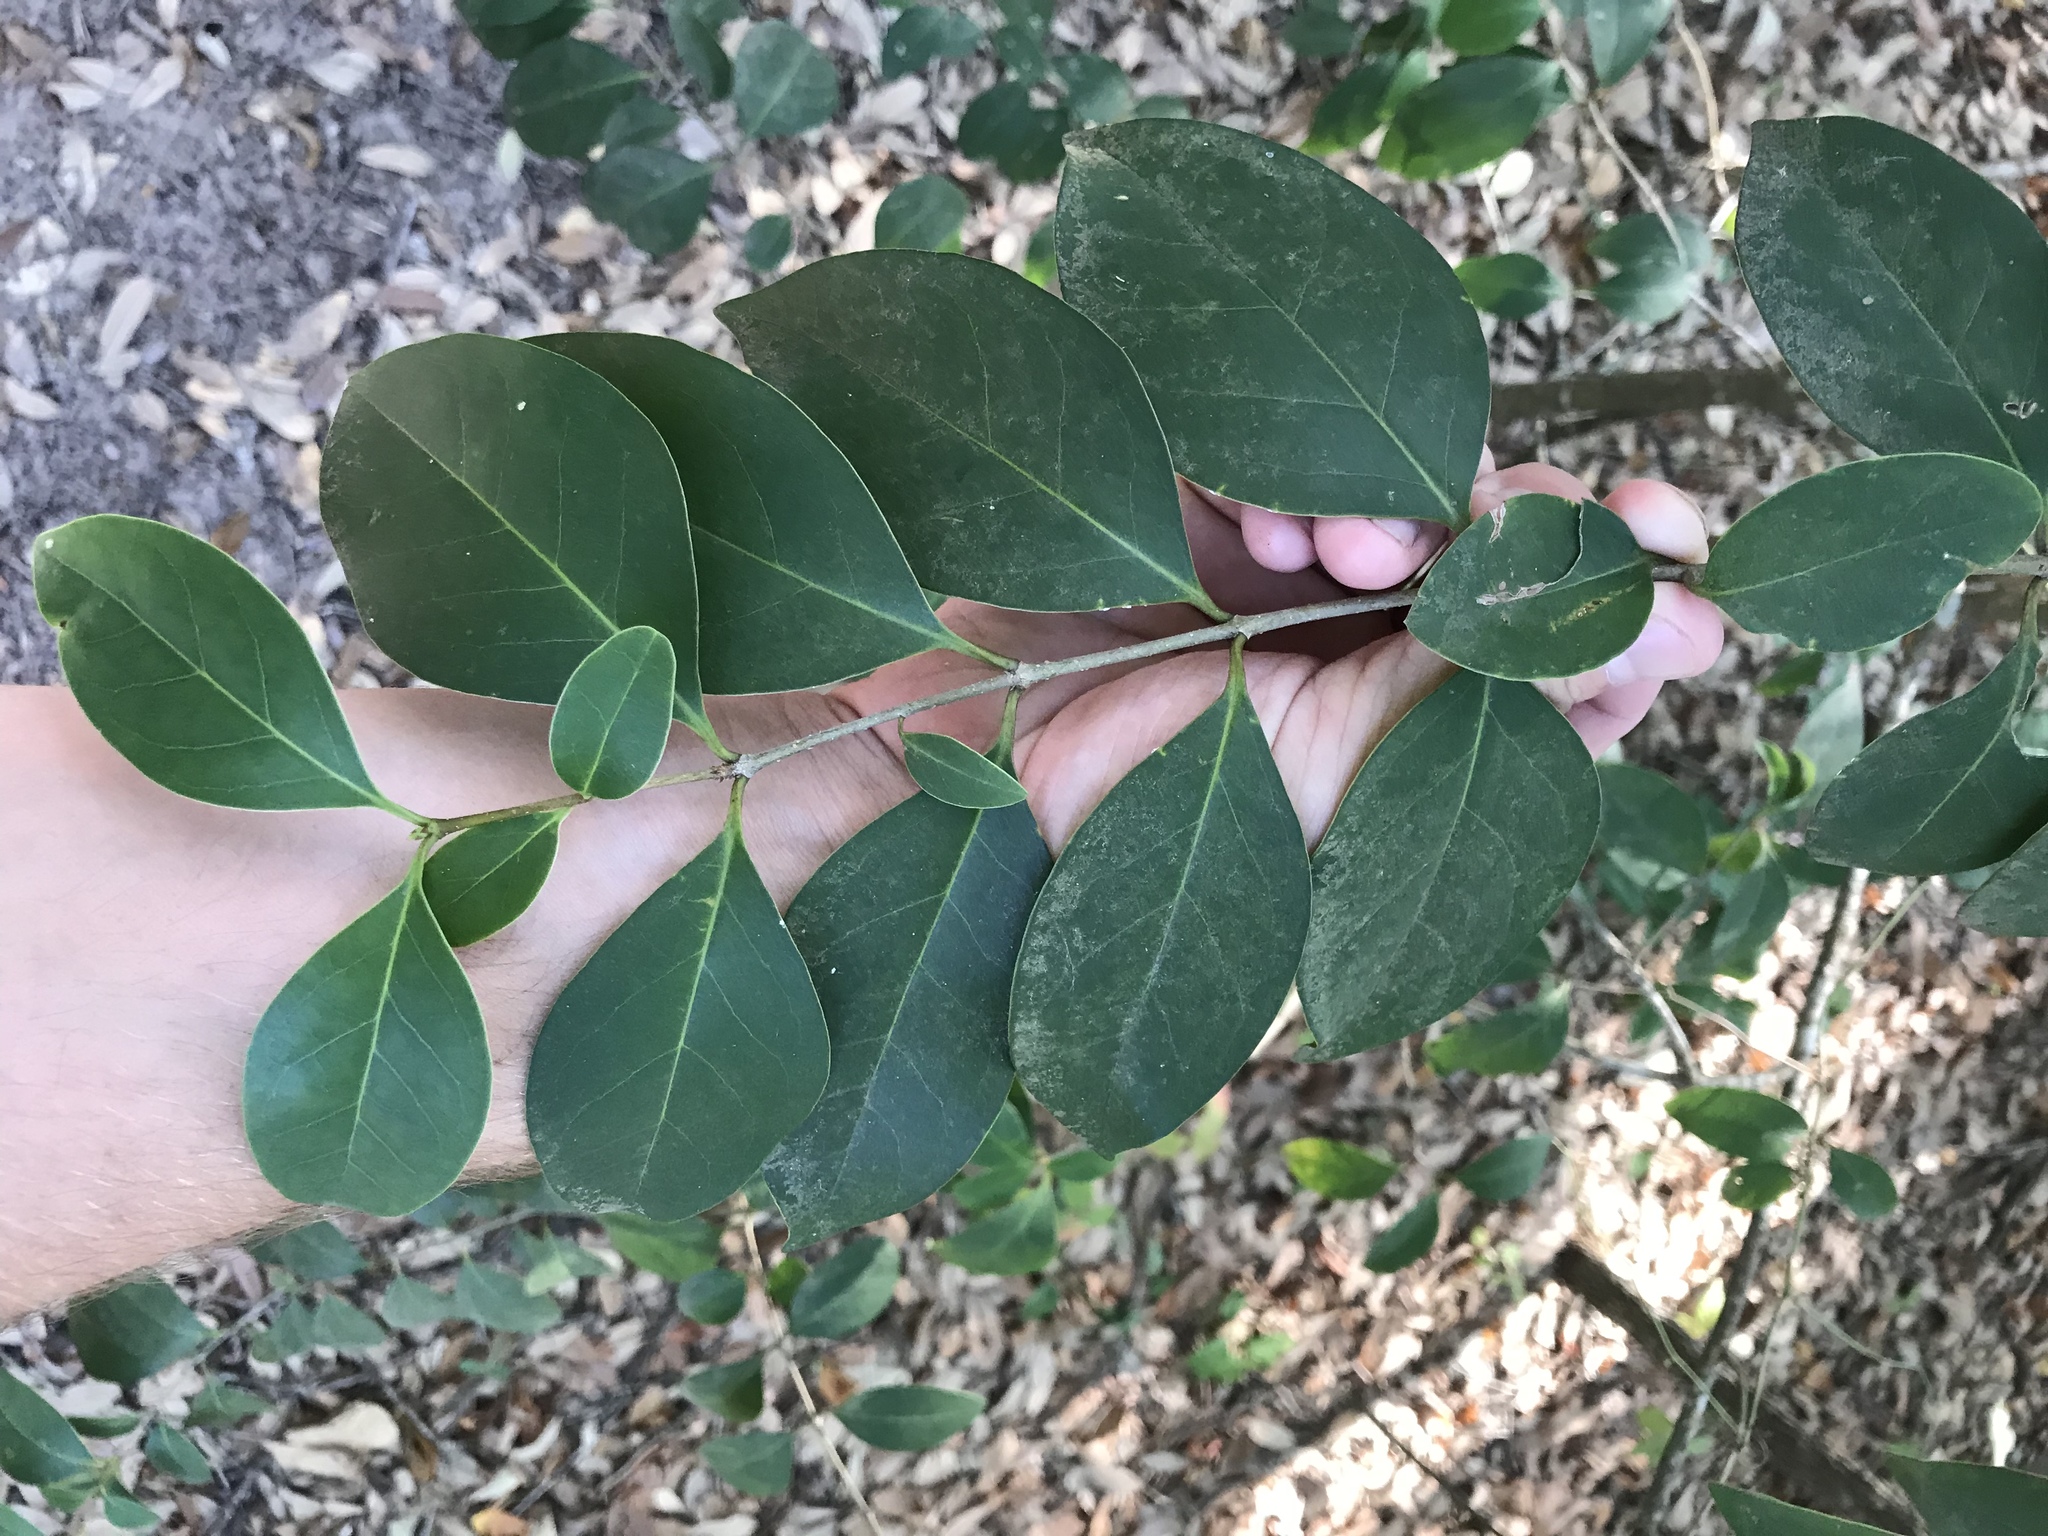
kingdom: Plantae
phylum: Tracheophyta
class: Magnoliopsida
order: Lamiales
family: Oleaceae
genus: Ligustrum
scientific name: Ligustrum lucidum
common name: Glossy privet
